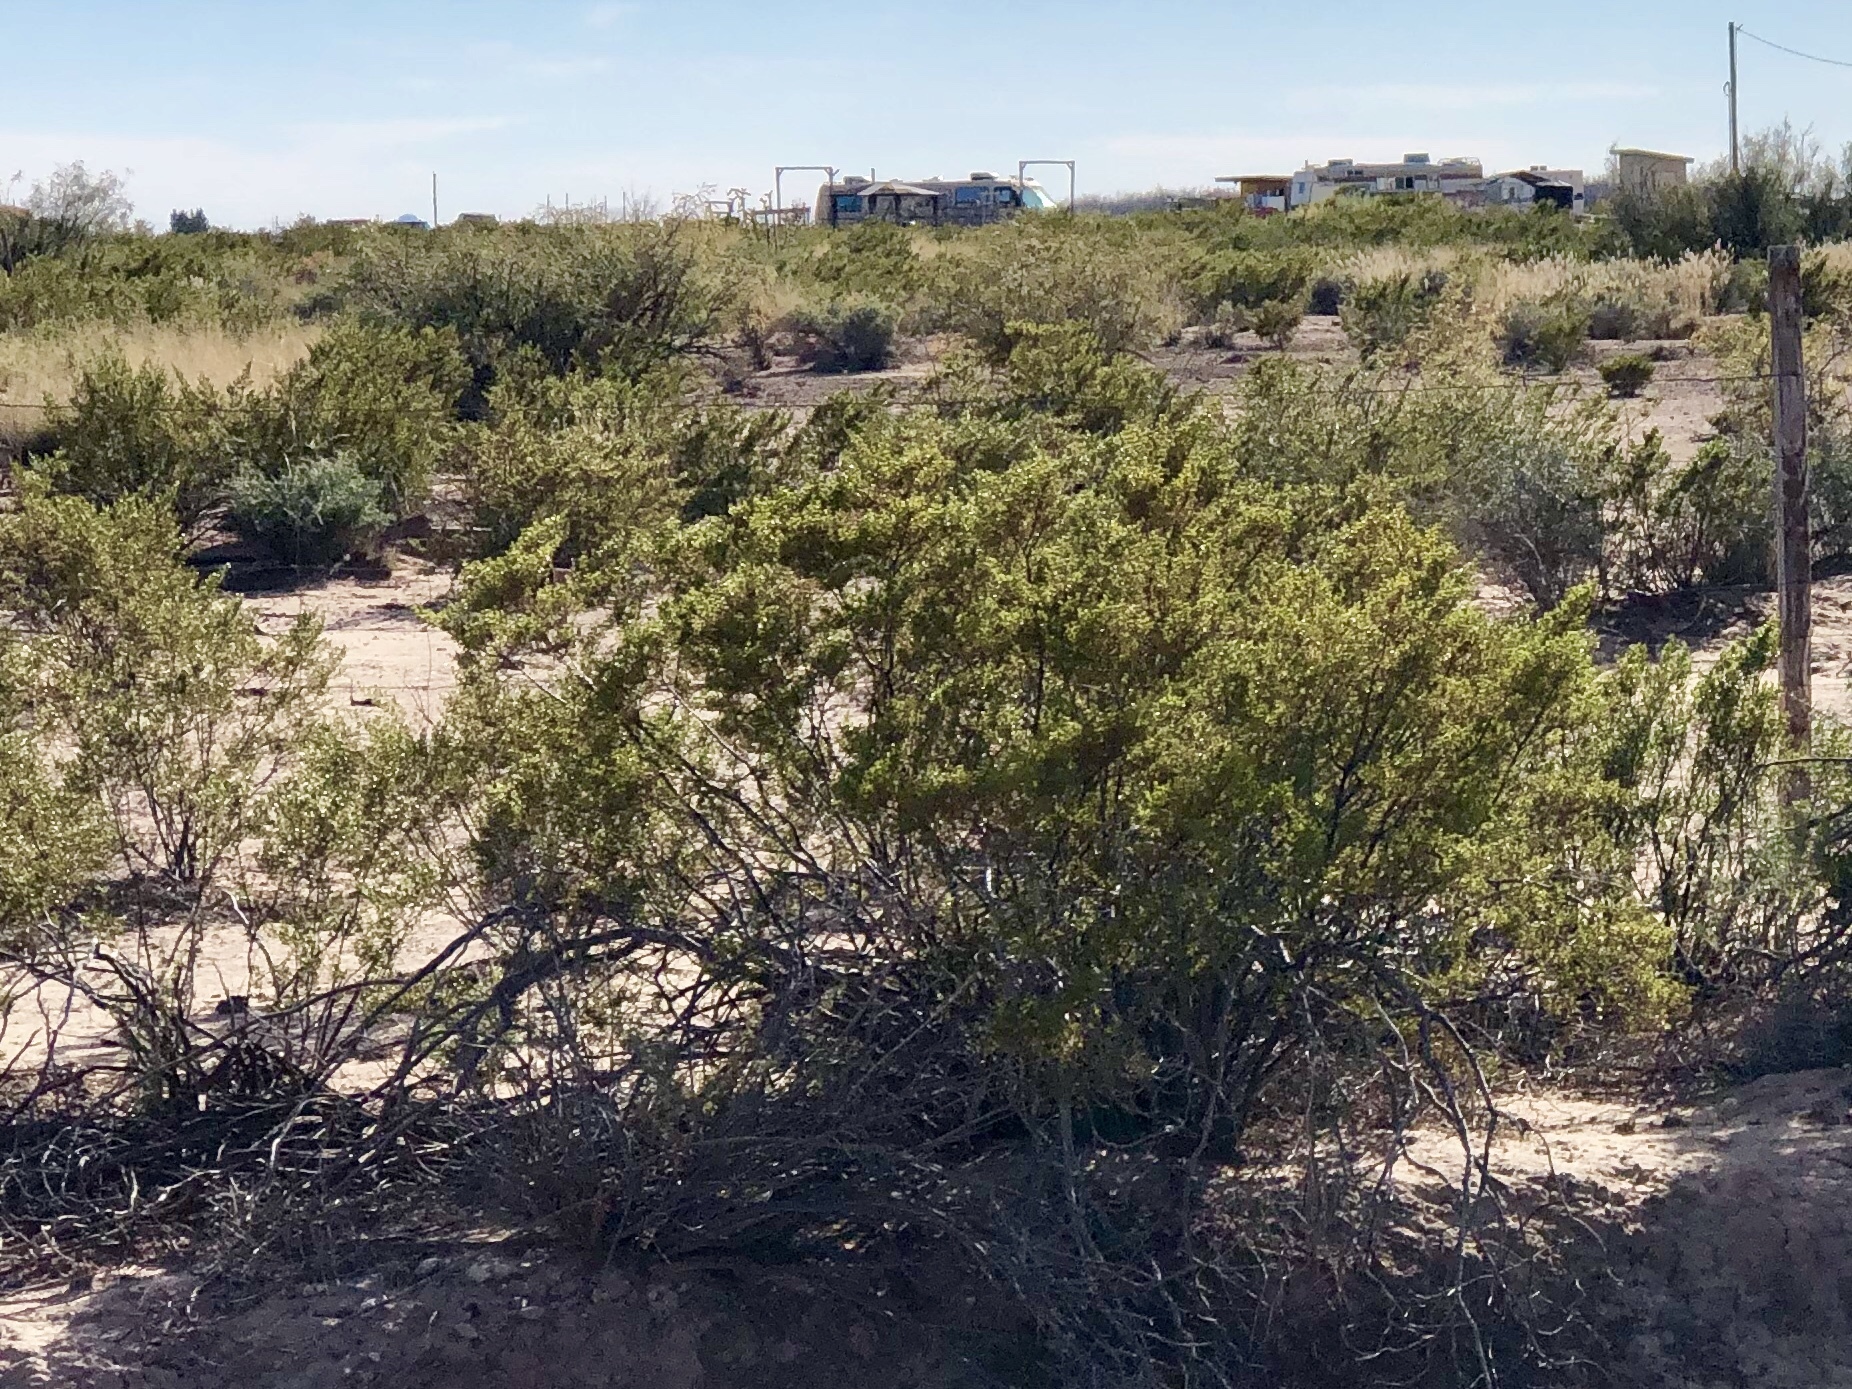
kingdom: Plantae
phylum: Tracheophyta
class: Magnoliopsida
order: Zygophyllales
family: Zygophyllaceae
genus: Larrea
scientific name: Larrea tridentata
